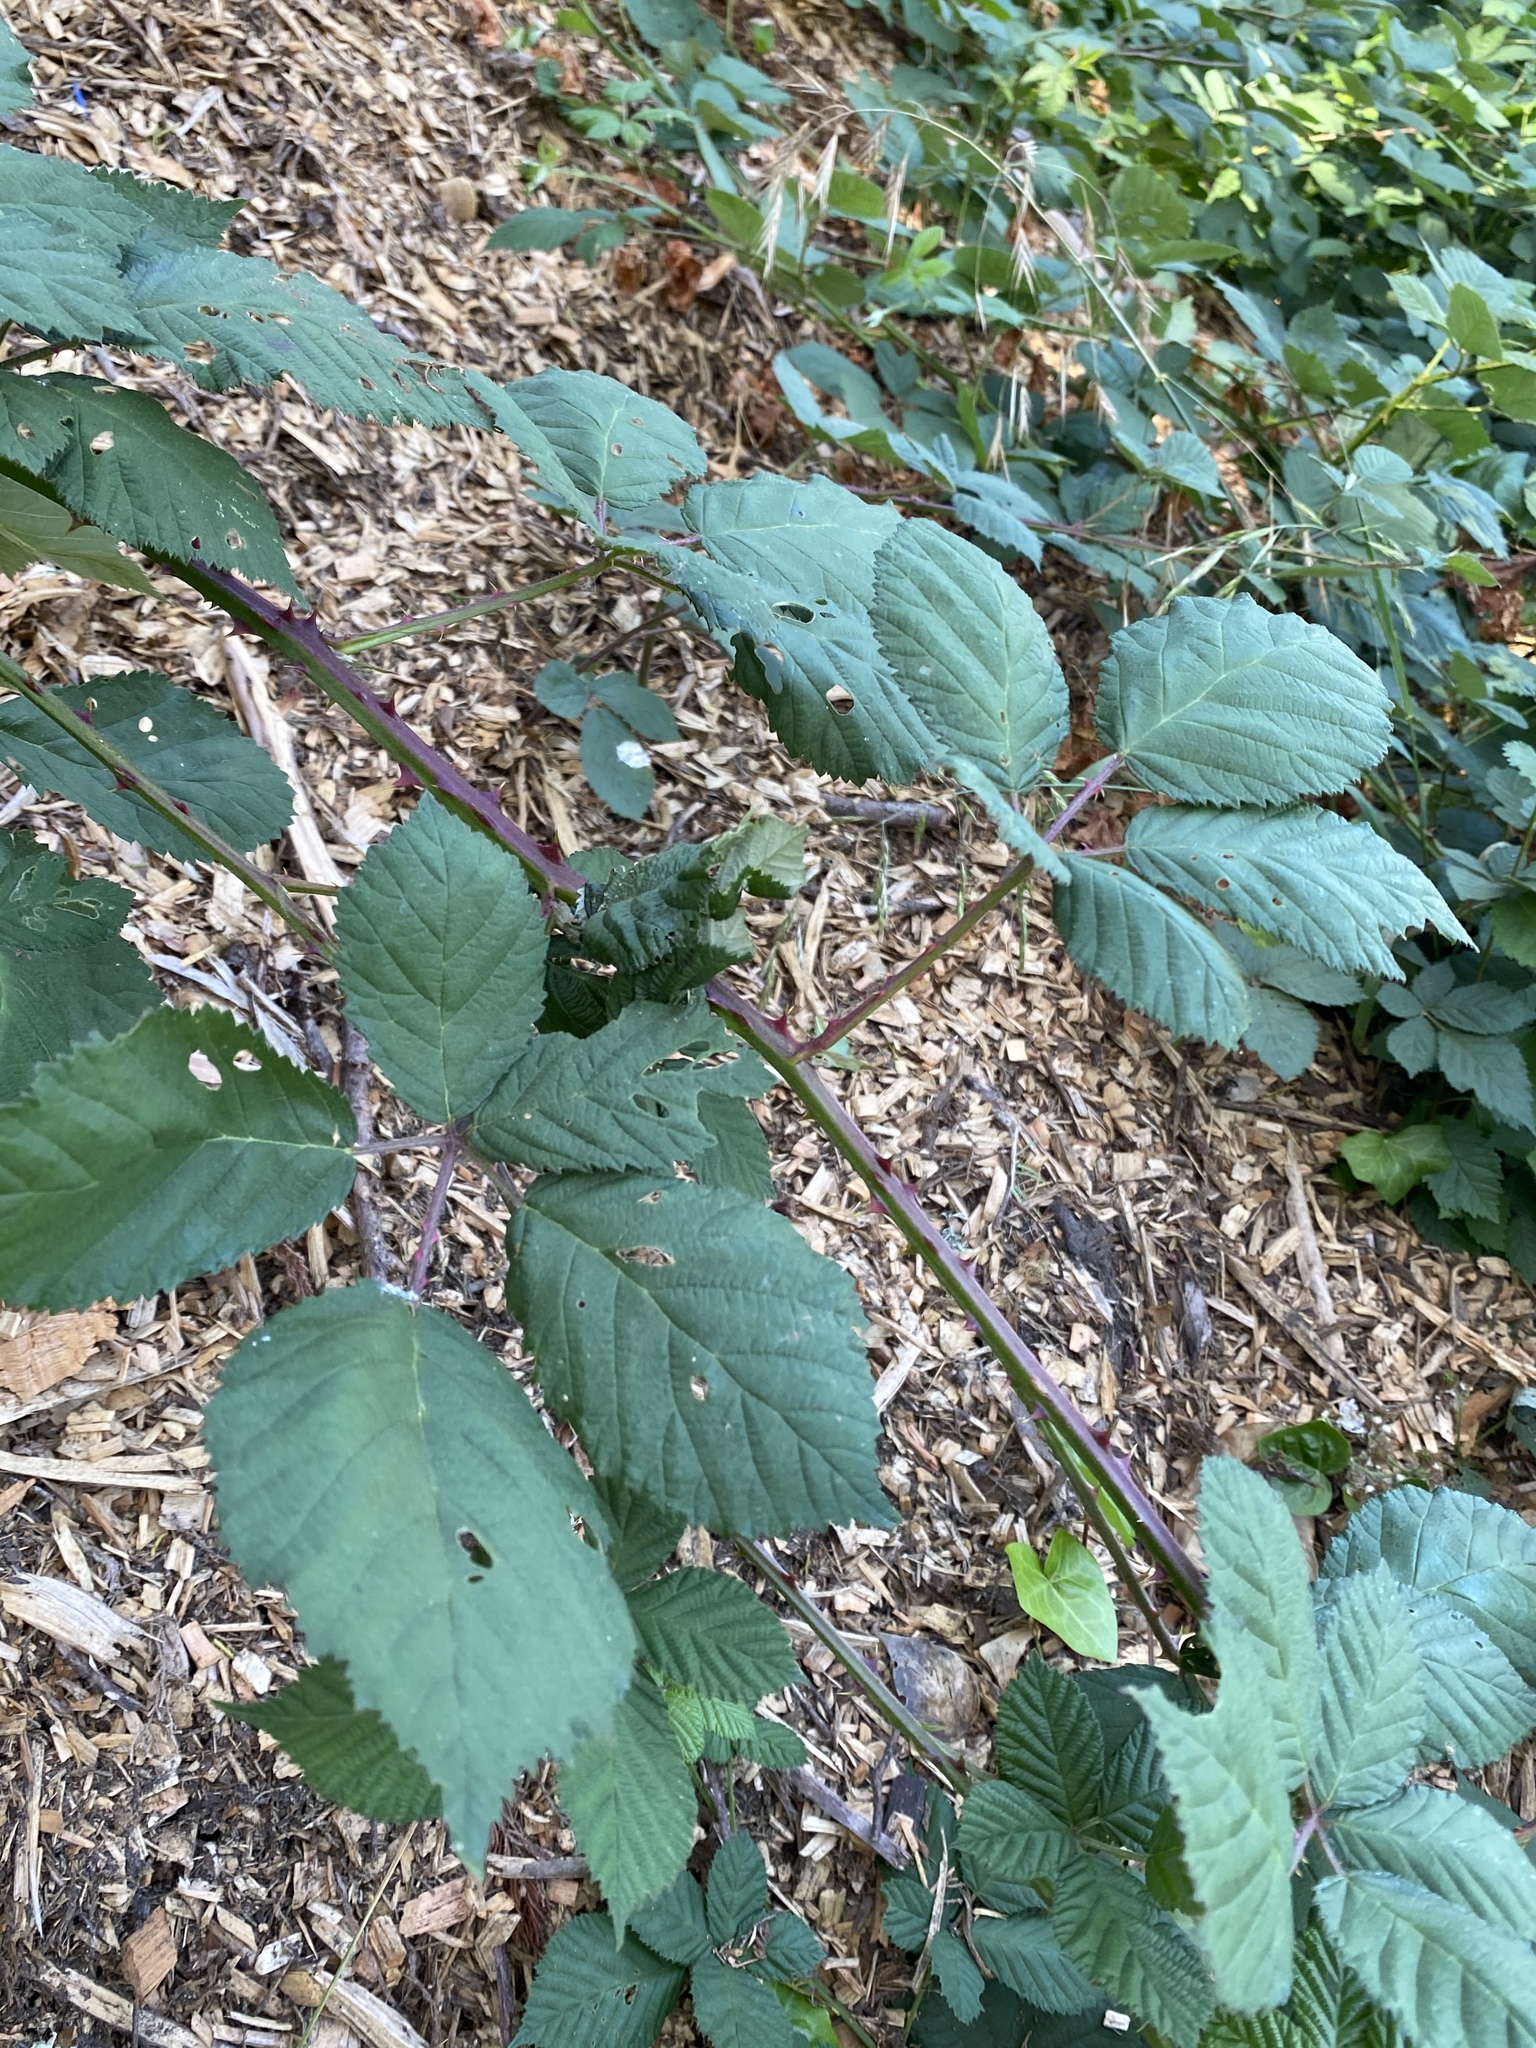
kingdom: Plantae
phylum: Tracheophyta
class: Magnoliopsida
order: Rosales
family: Rosaceae
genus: Rubus
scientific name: Rubus armeniacus
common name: Himalayan blackberry
